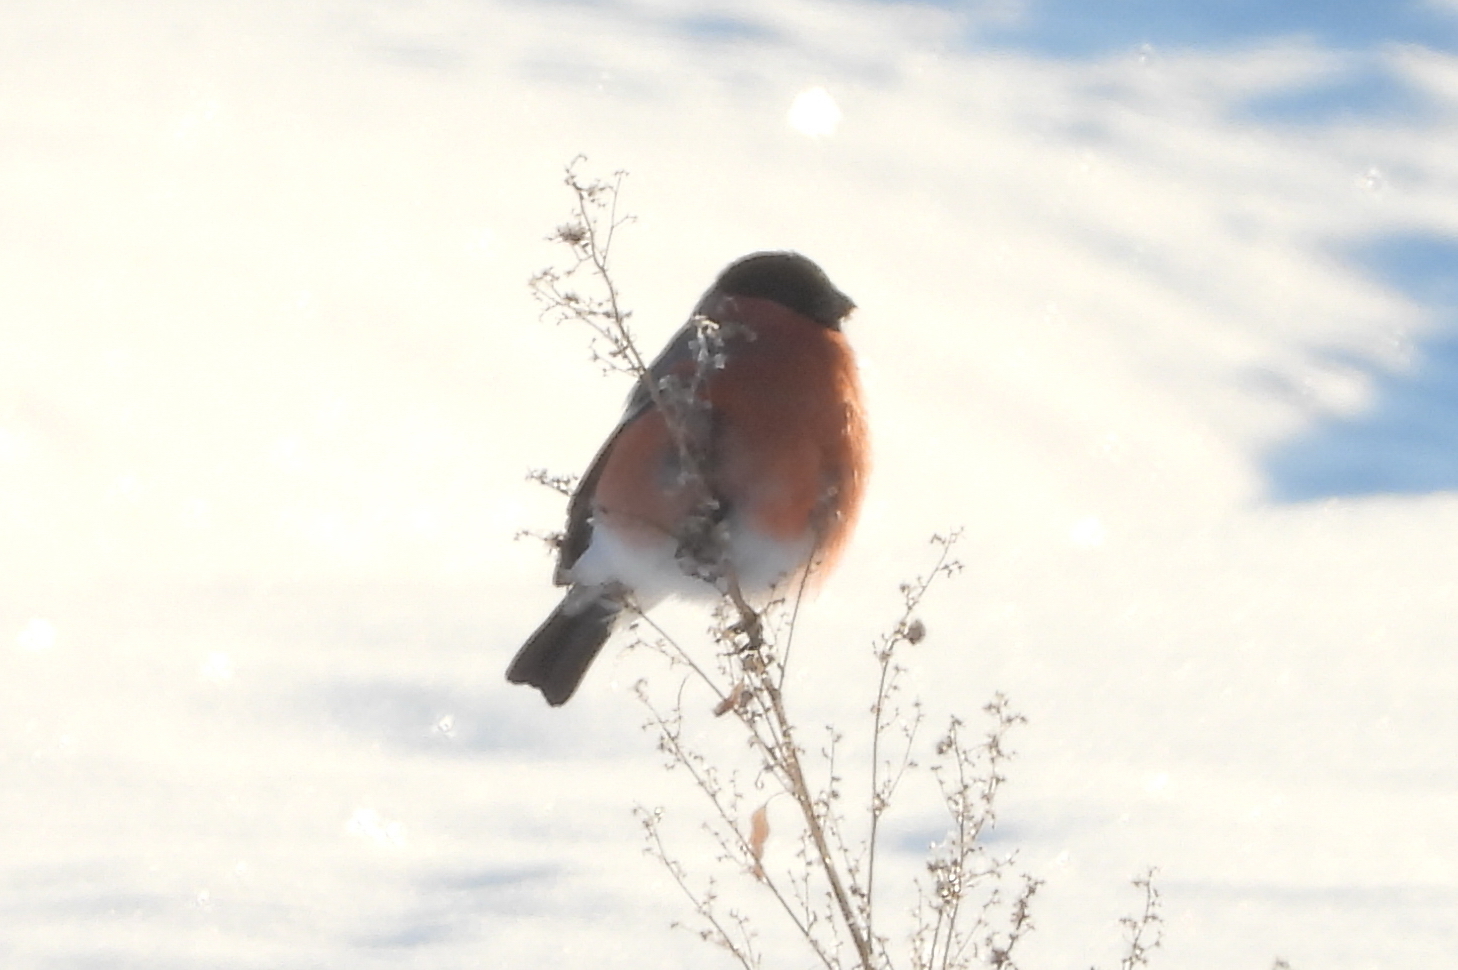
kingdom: Animalia
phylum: Chordata
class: Aves
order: Passeriformes
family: Fringillidae
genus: Pyrrhula
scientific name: Pyrrhula pyrrhula
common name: Eurasian bullfinch
